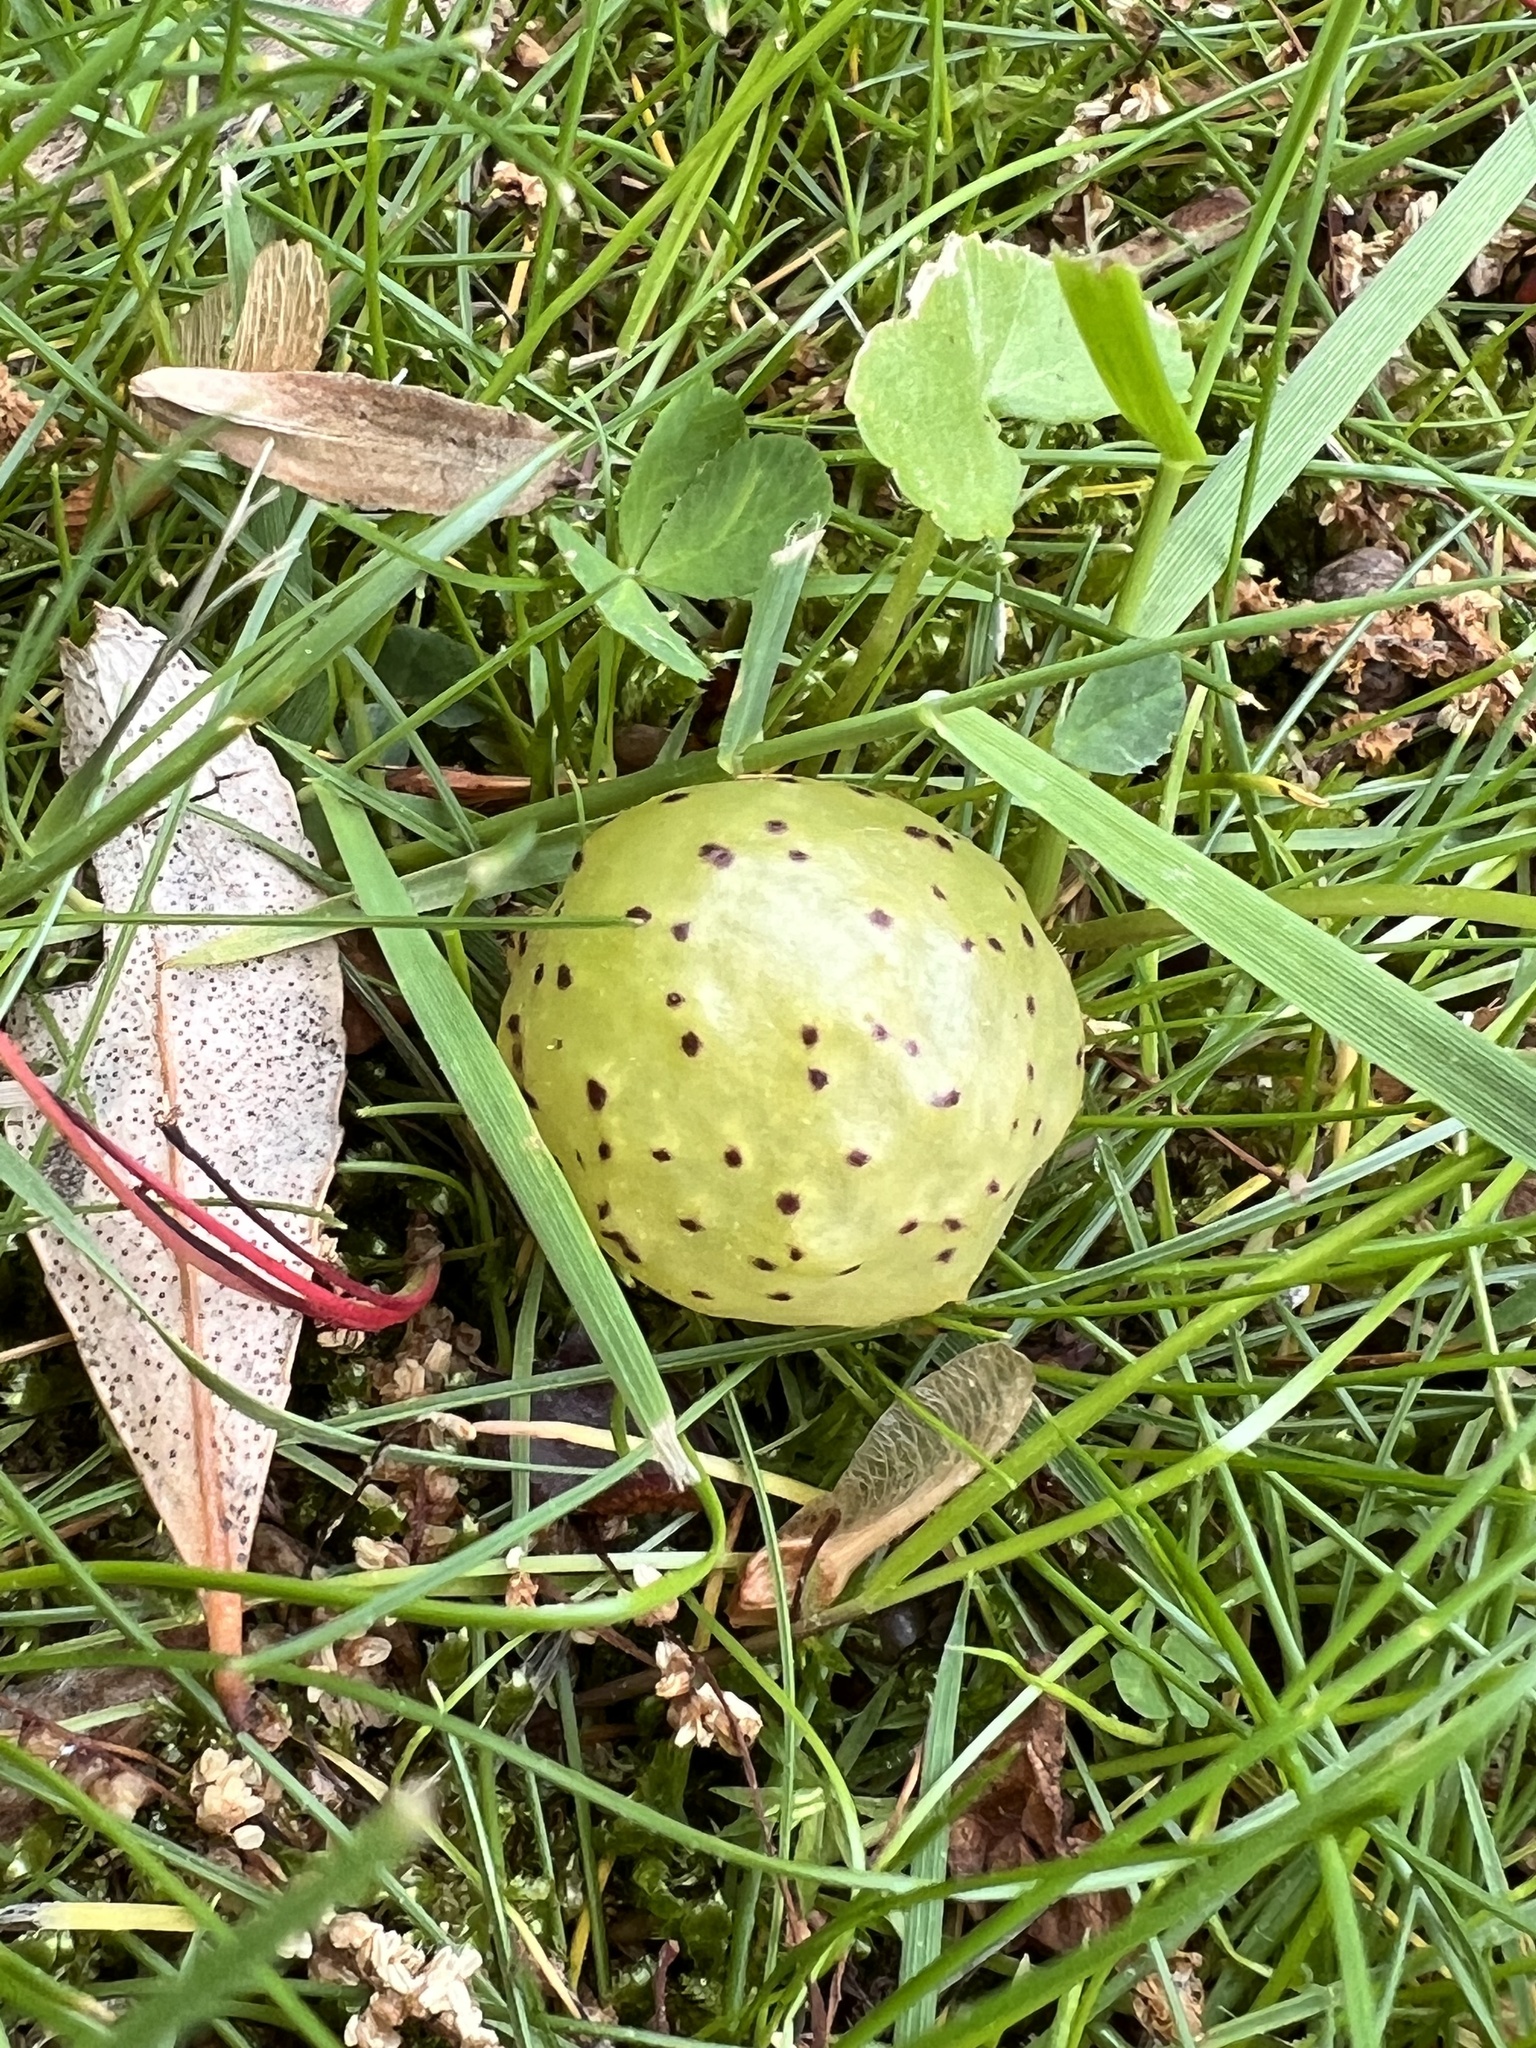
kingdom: Animalia
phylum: Arthropoda
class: Insecta
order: Hymenoptera
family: Cynipidae
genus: Amphibolips
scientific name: Amphibolips
